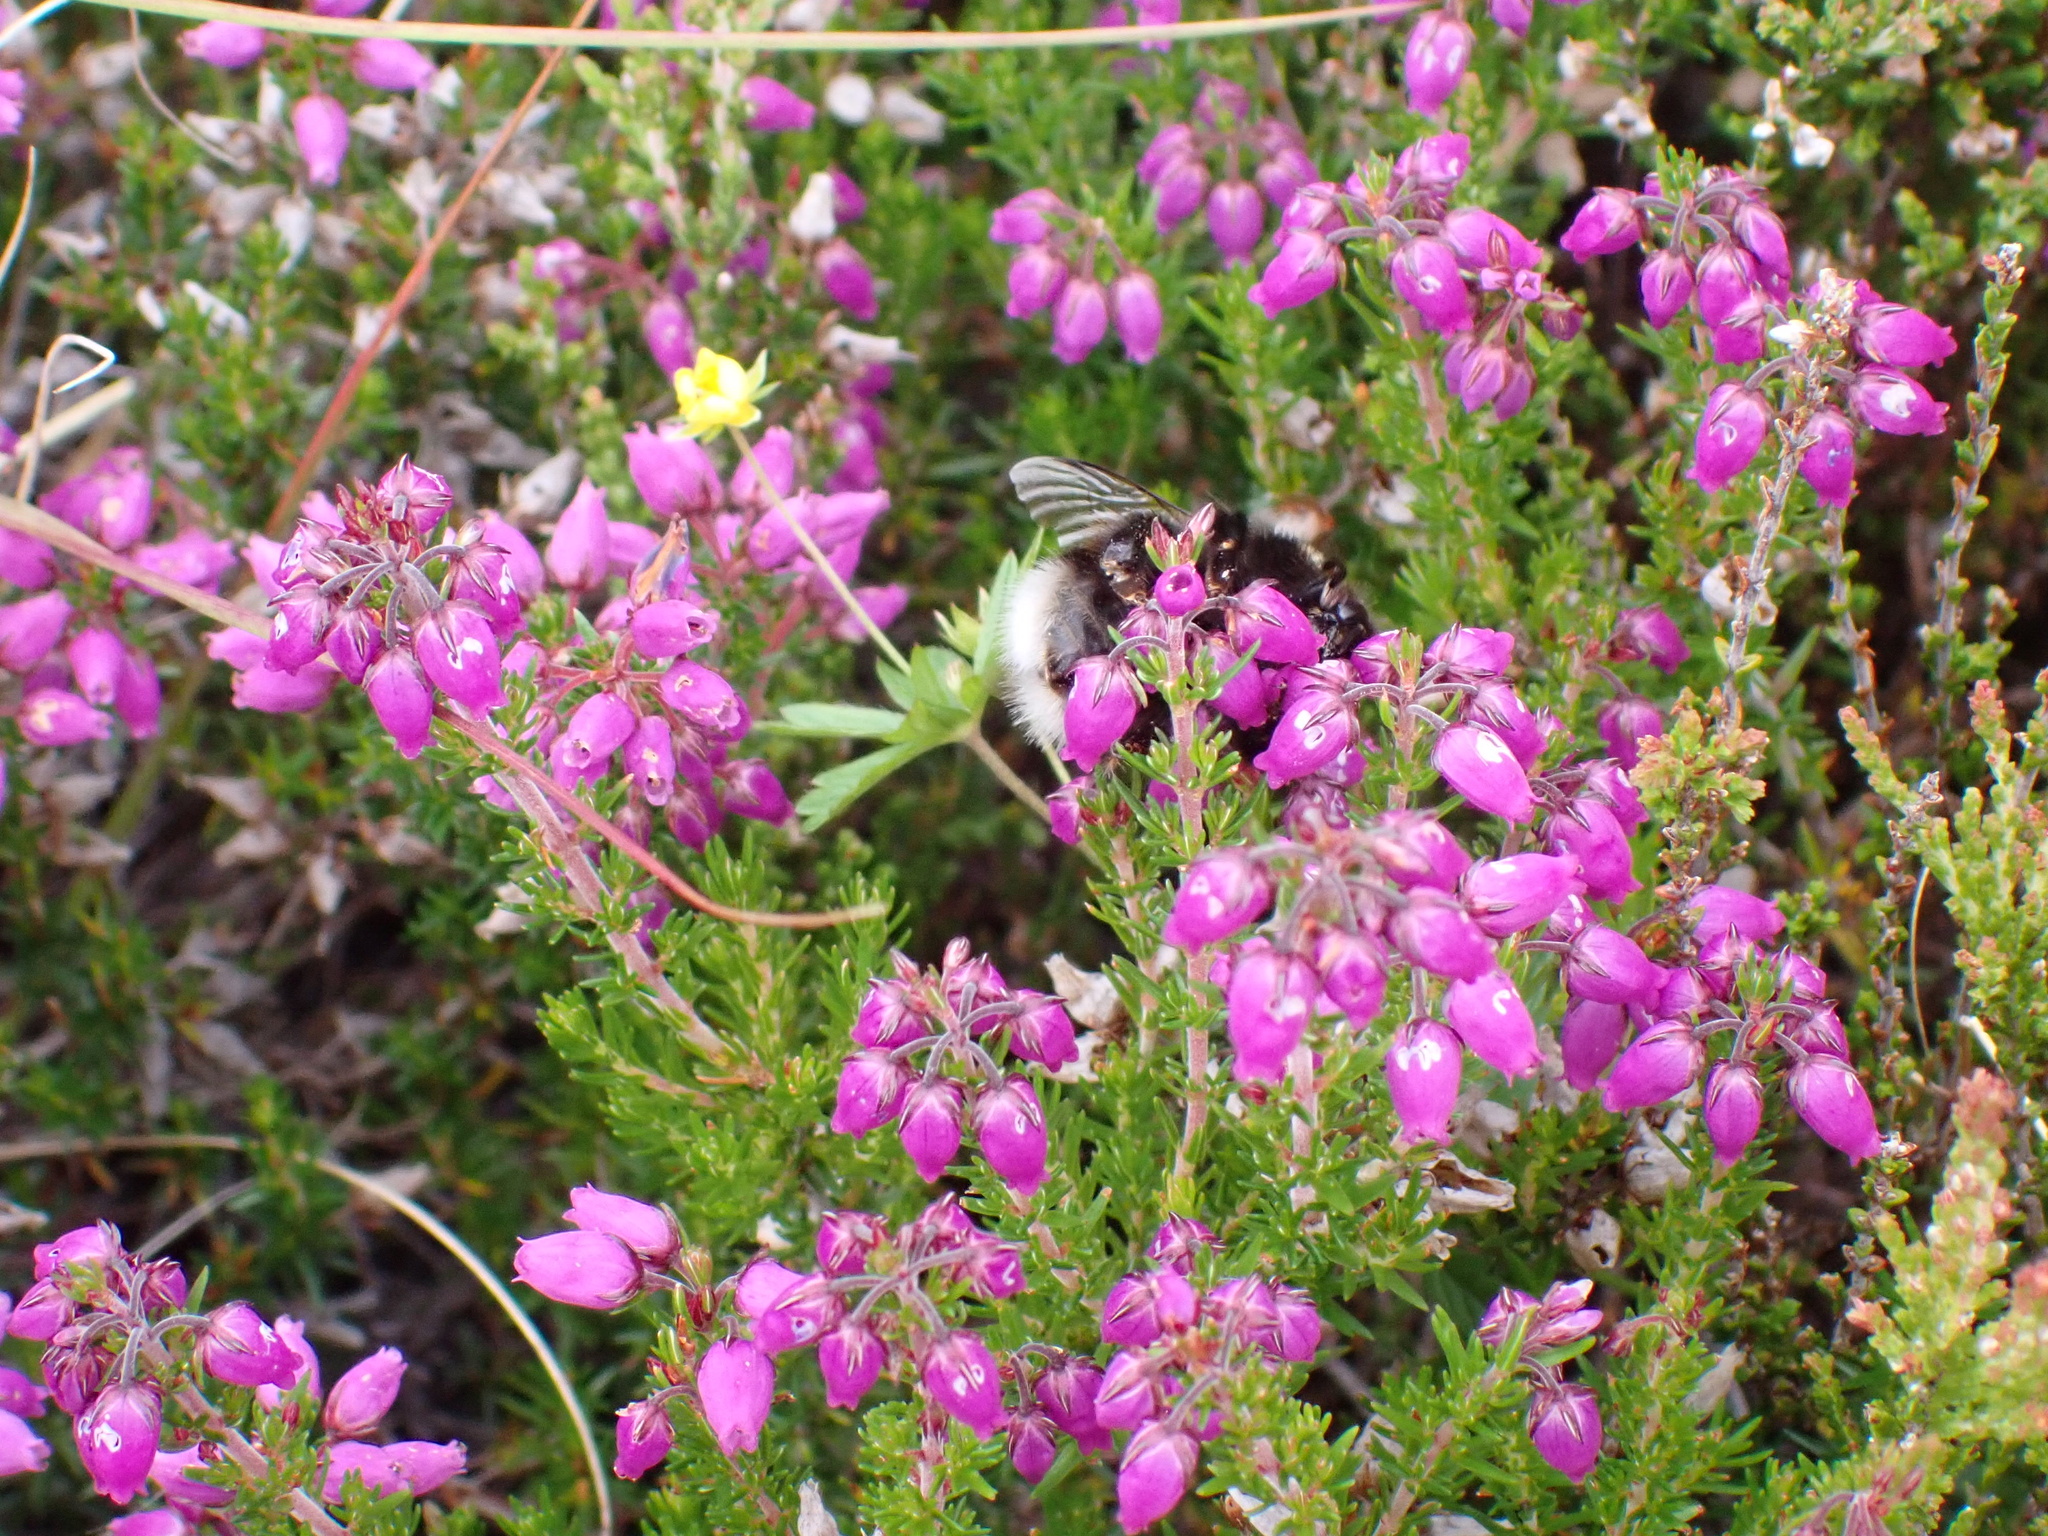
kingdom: Plantae
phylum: Tracheophyta
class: Magnoliopsida
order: Ericales
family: Ericaceae
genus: Erica
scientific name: Erica cinerea
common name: Bell heather
